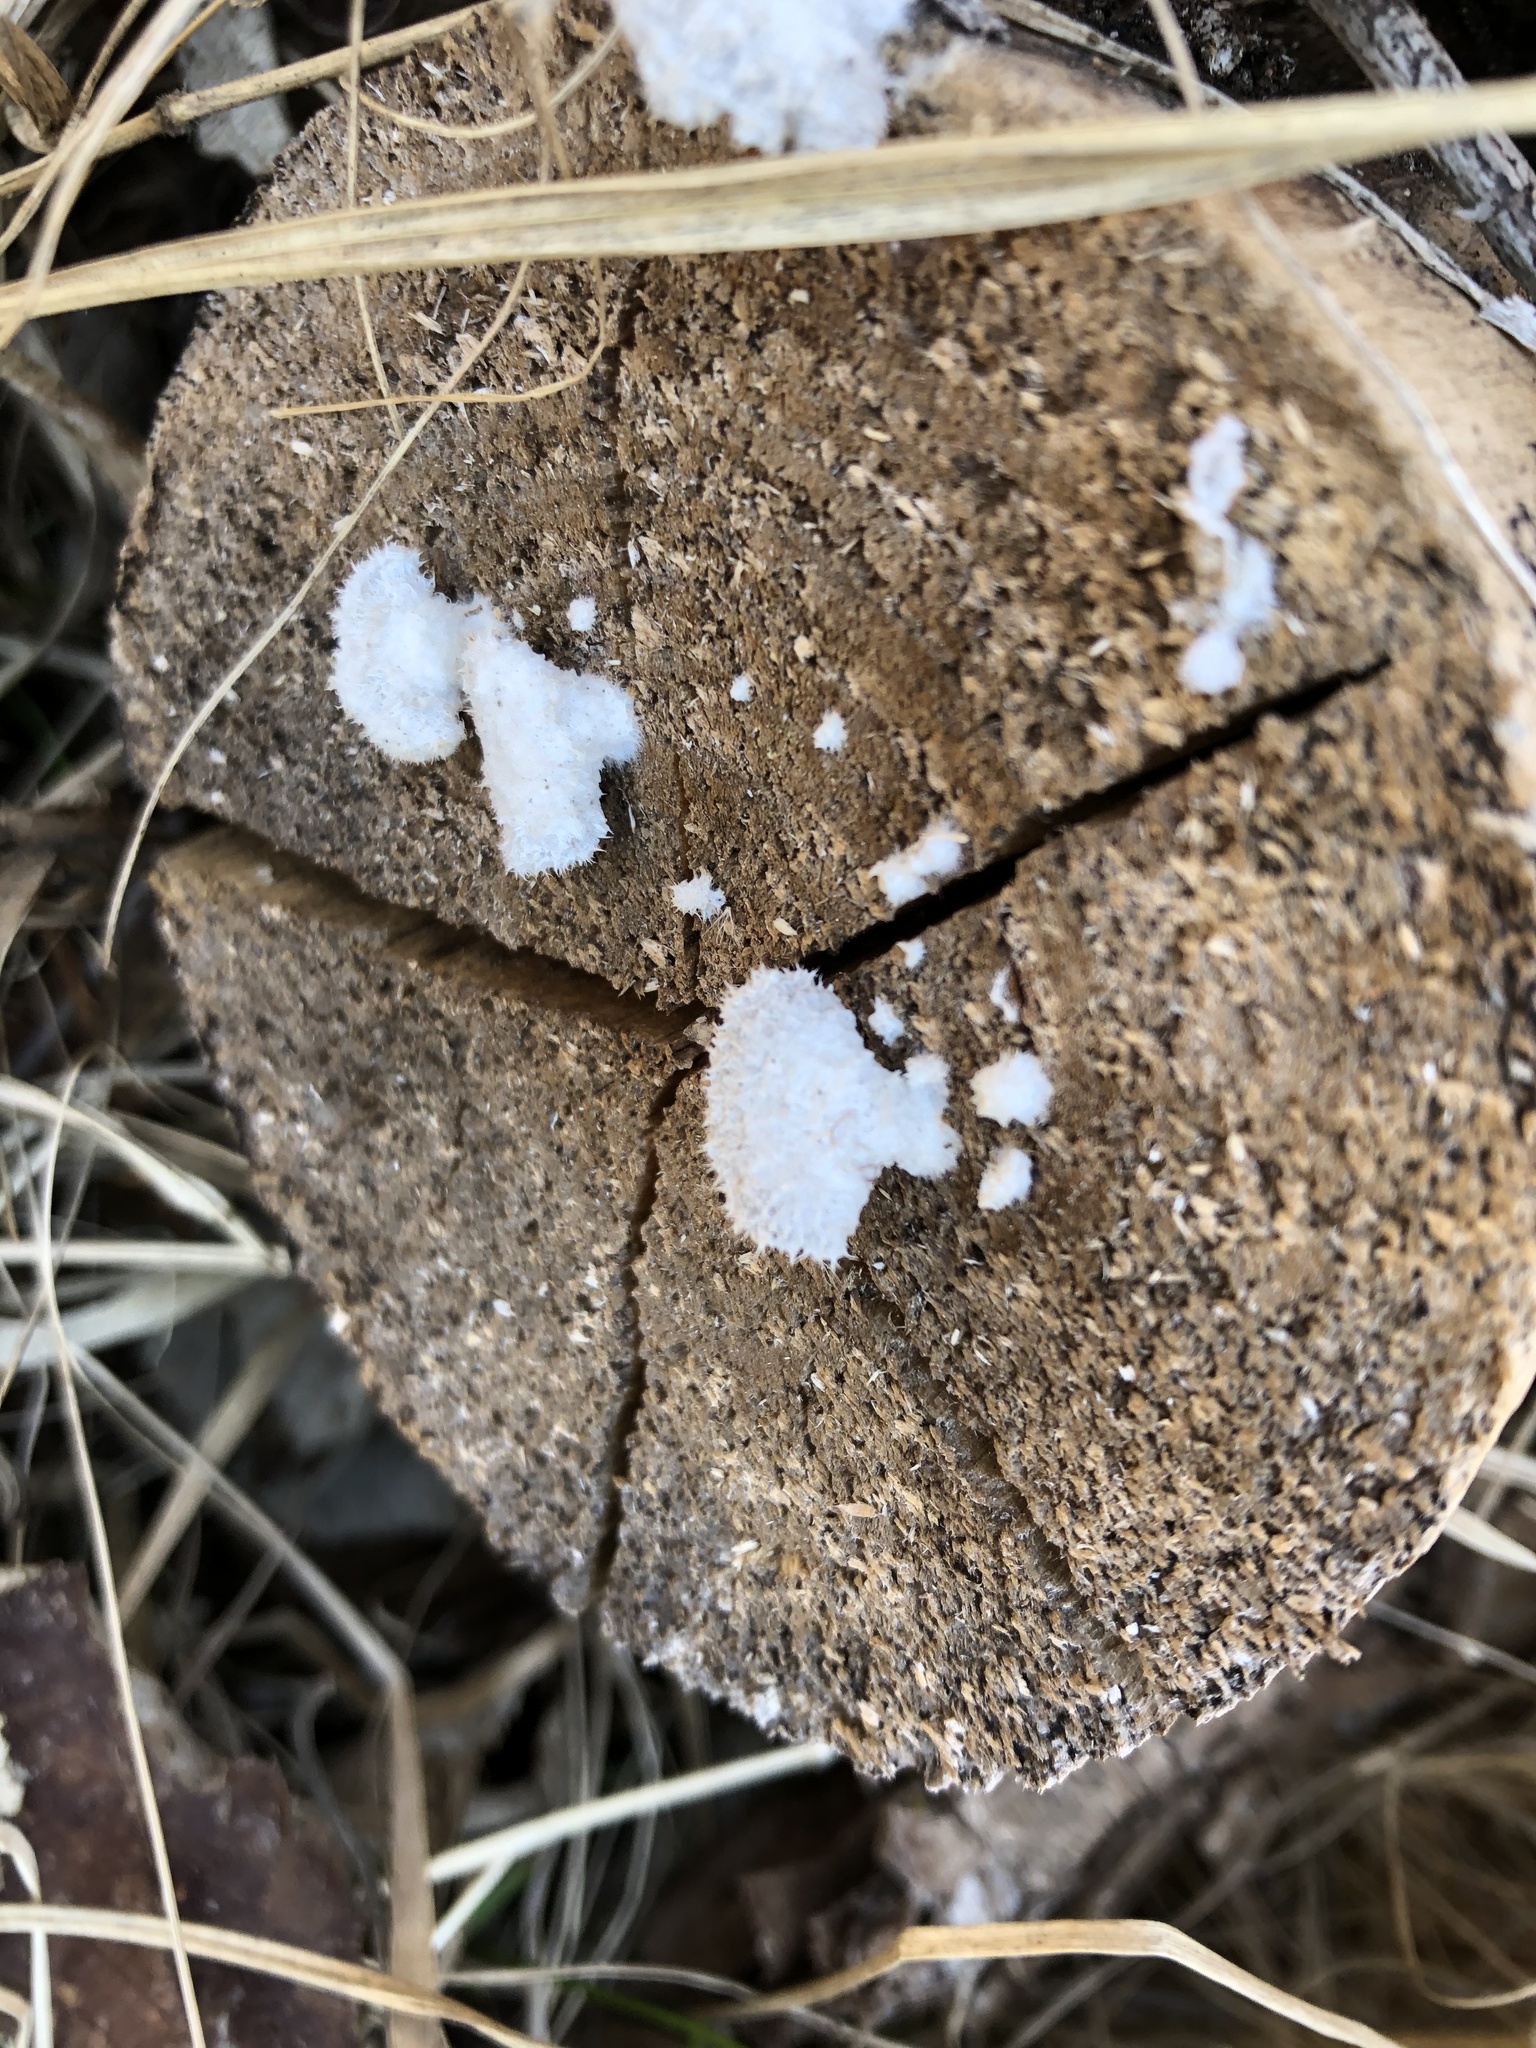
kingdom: Fungi
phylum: Basidiomycota
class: Agaricomycetes
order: Agaricales
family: Schizophyllaceae
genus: Schizophyllum
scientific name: Schizophyllum commune
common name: Common porecrust
